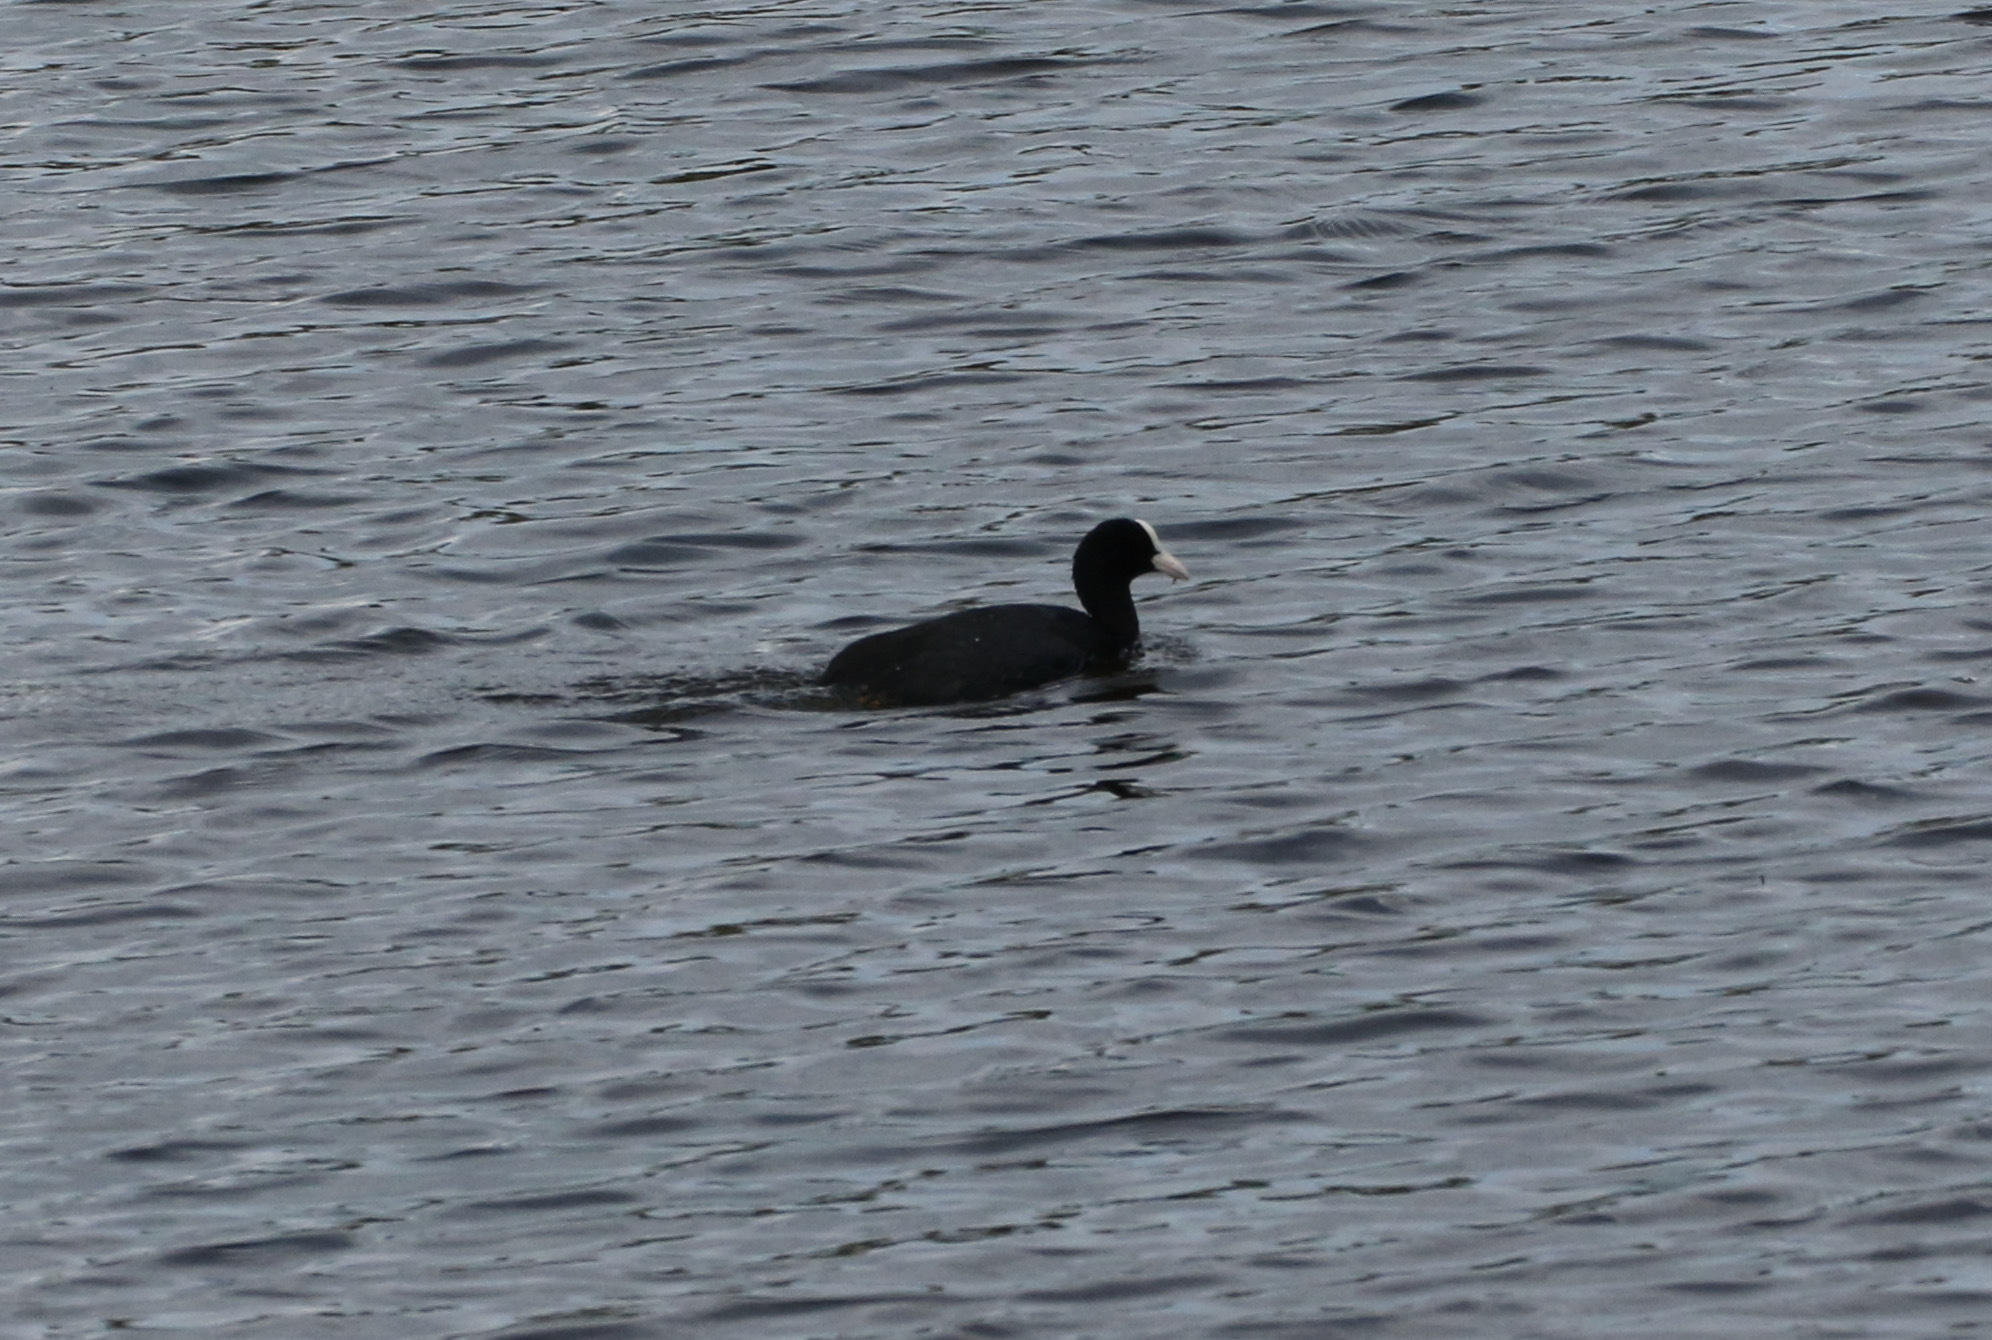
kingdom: Animalia
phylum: Chordata
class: Aves
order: Gruiformes
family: Rallidae
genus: Fulica
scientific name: Fulica atra
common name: Eurasian coot
